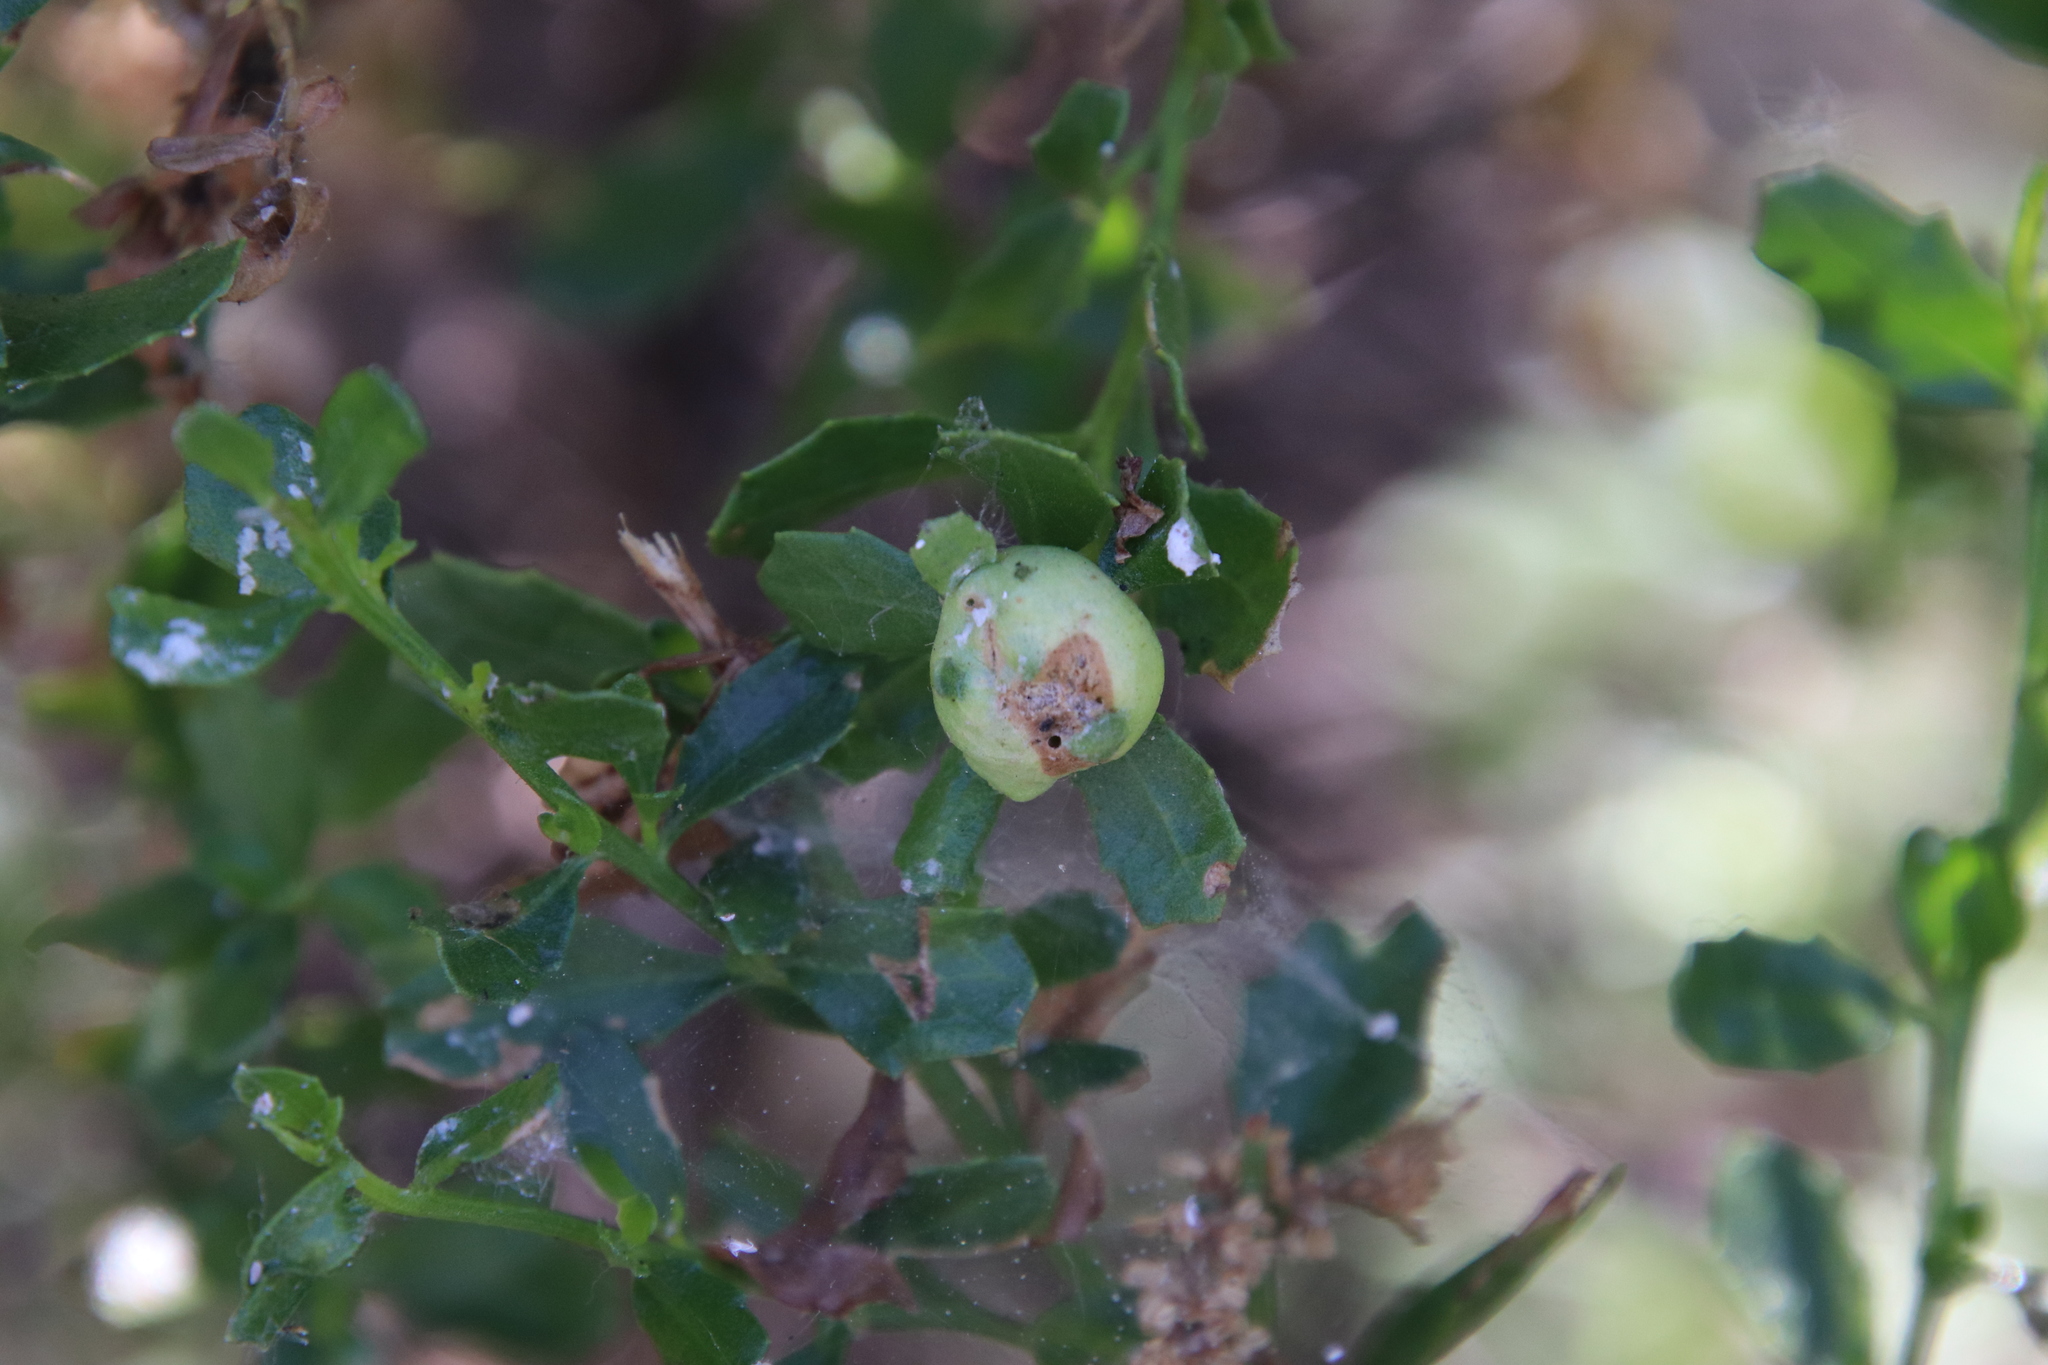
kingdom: Animalia
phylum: Arthropoda
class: Insecta
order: Diptera
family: Cecidomyiidae
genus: Rhopalomyia
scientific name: Rhopalomyia californica
